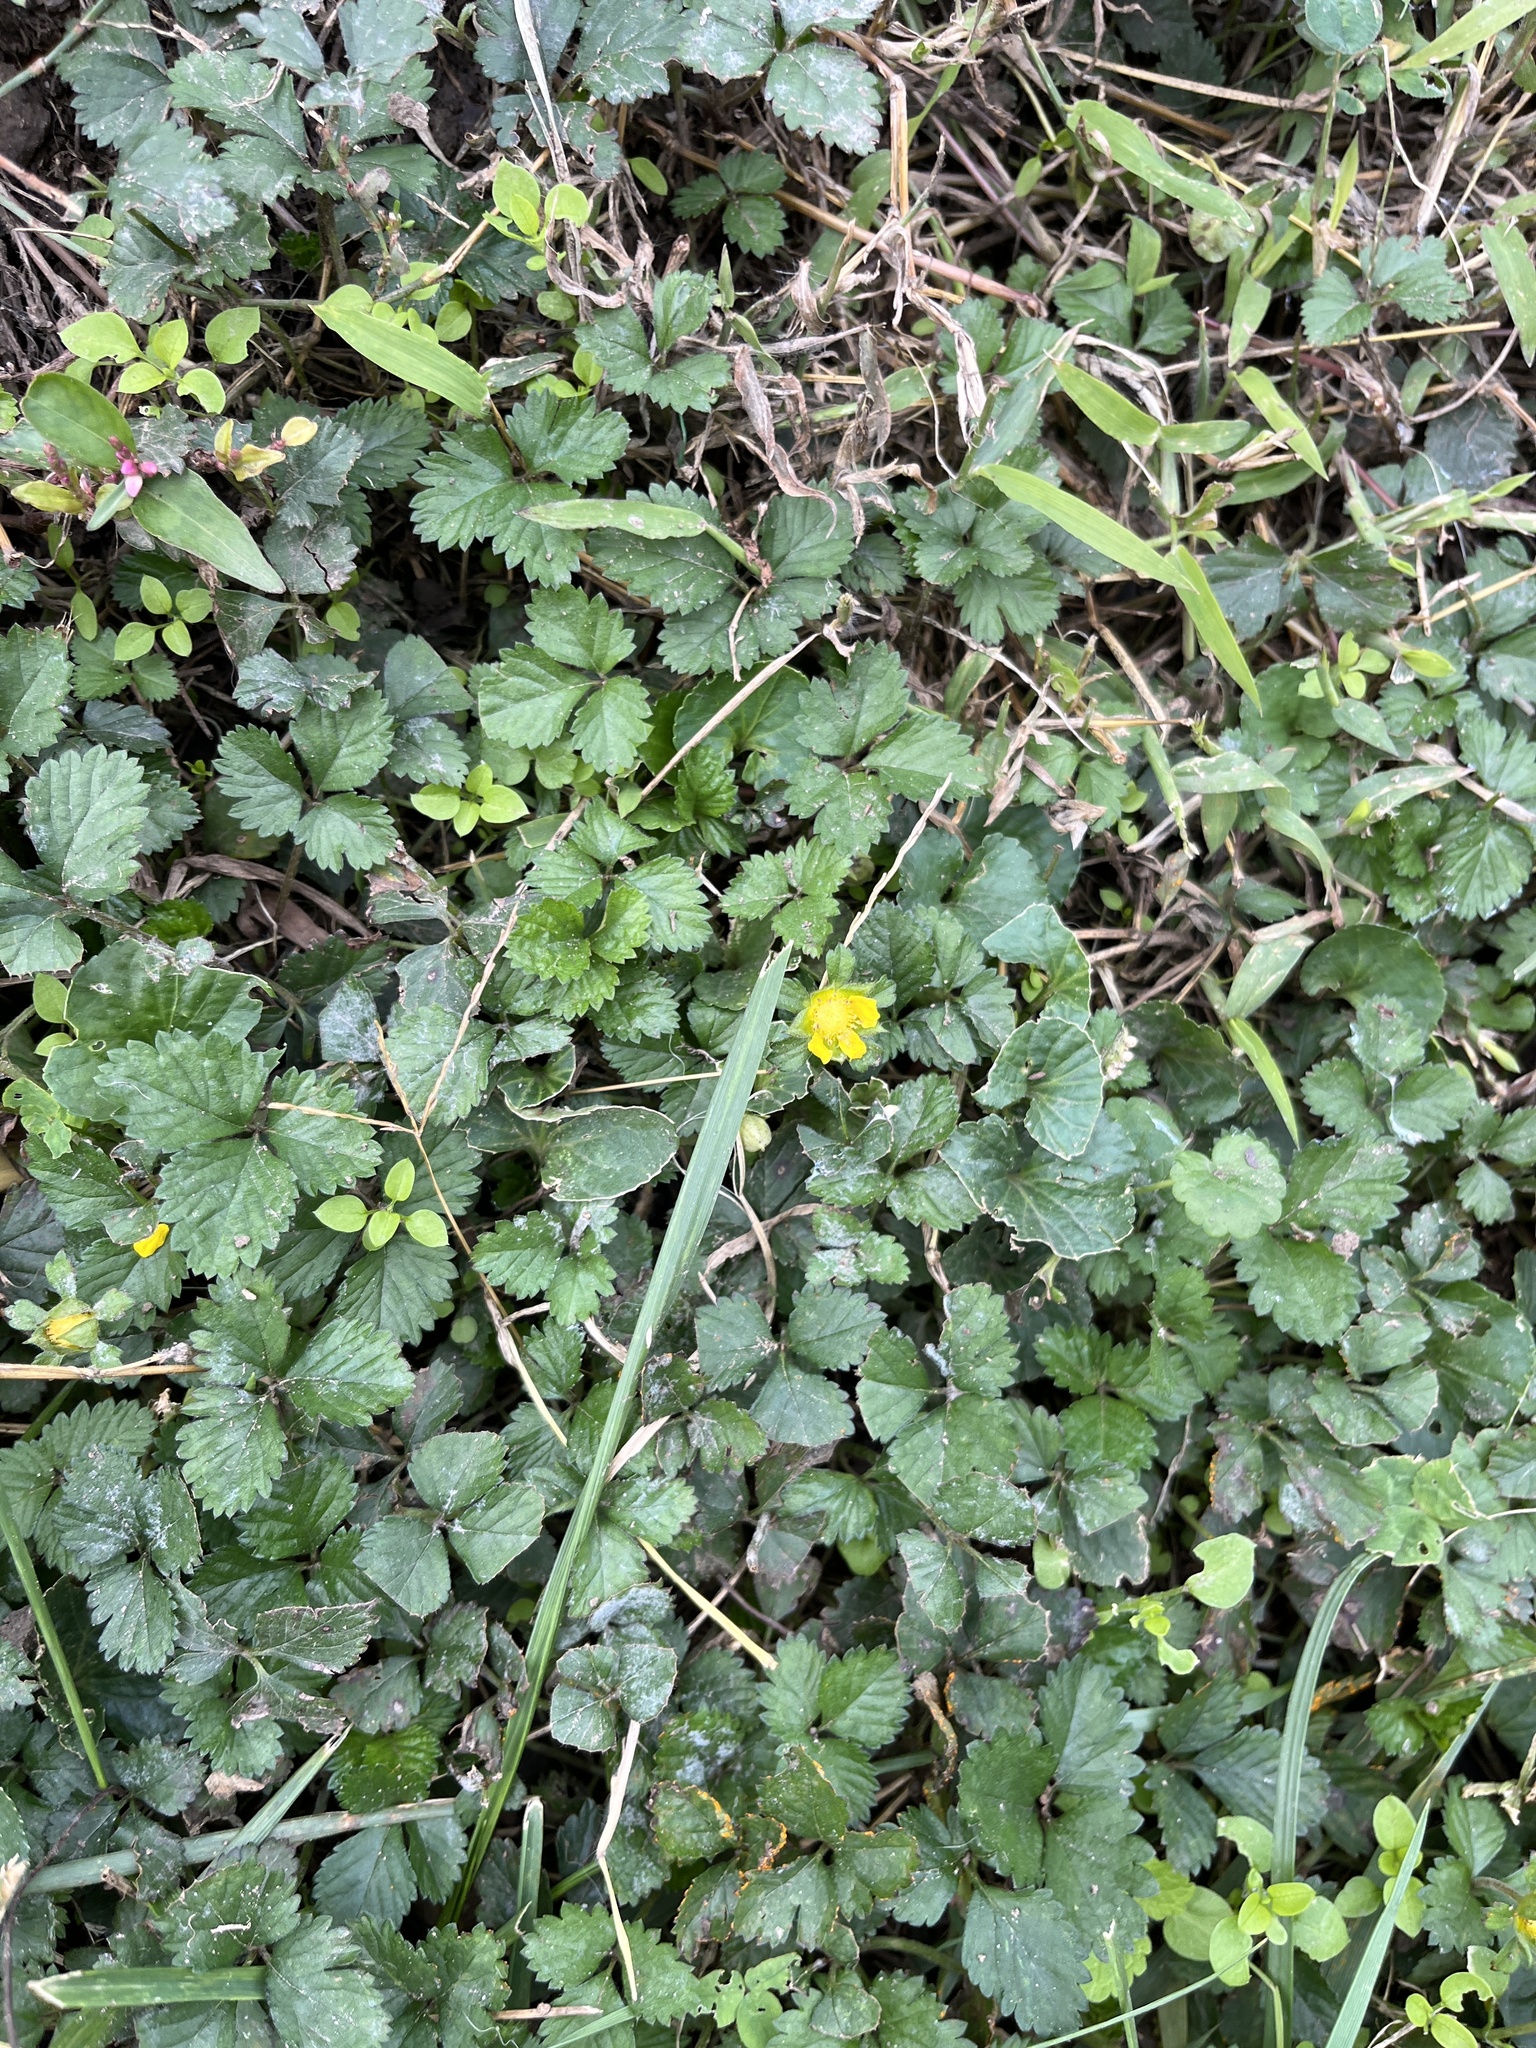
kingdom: Plantae
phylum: Tracheophyta
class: Magnoliopsida
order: Rosales
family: Rosaceae
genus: Potentilla
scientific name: Potentilla indica
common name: Yellow-flowered strawberry
